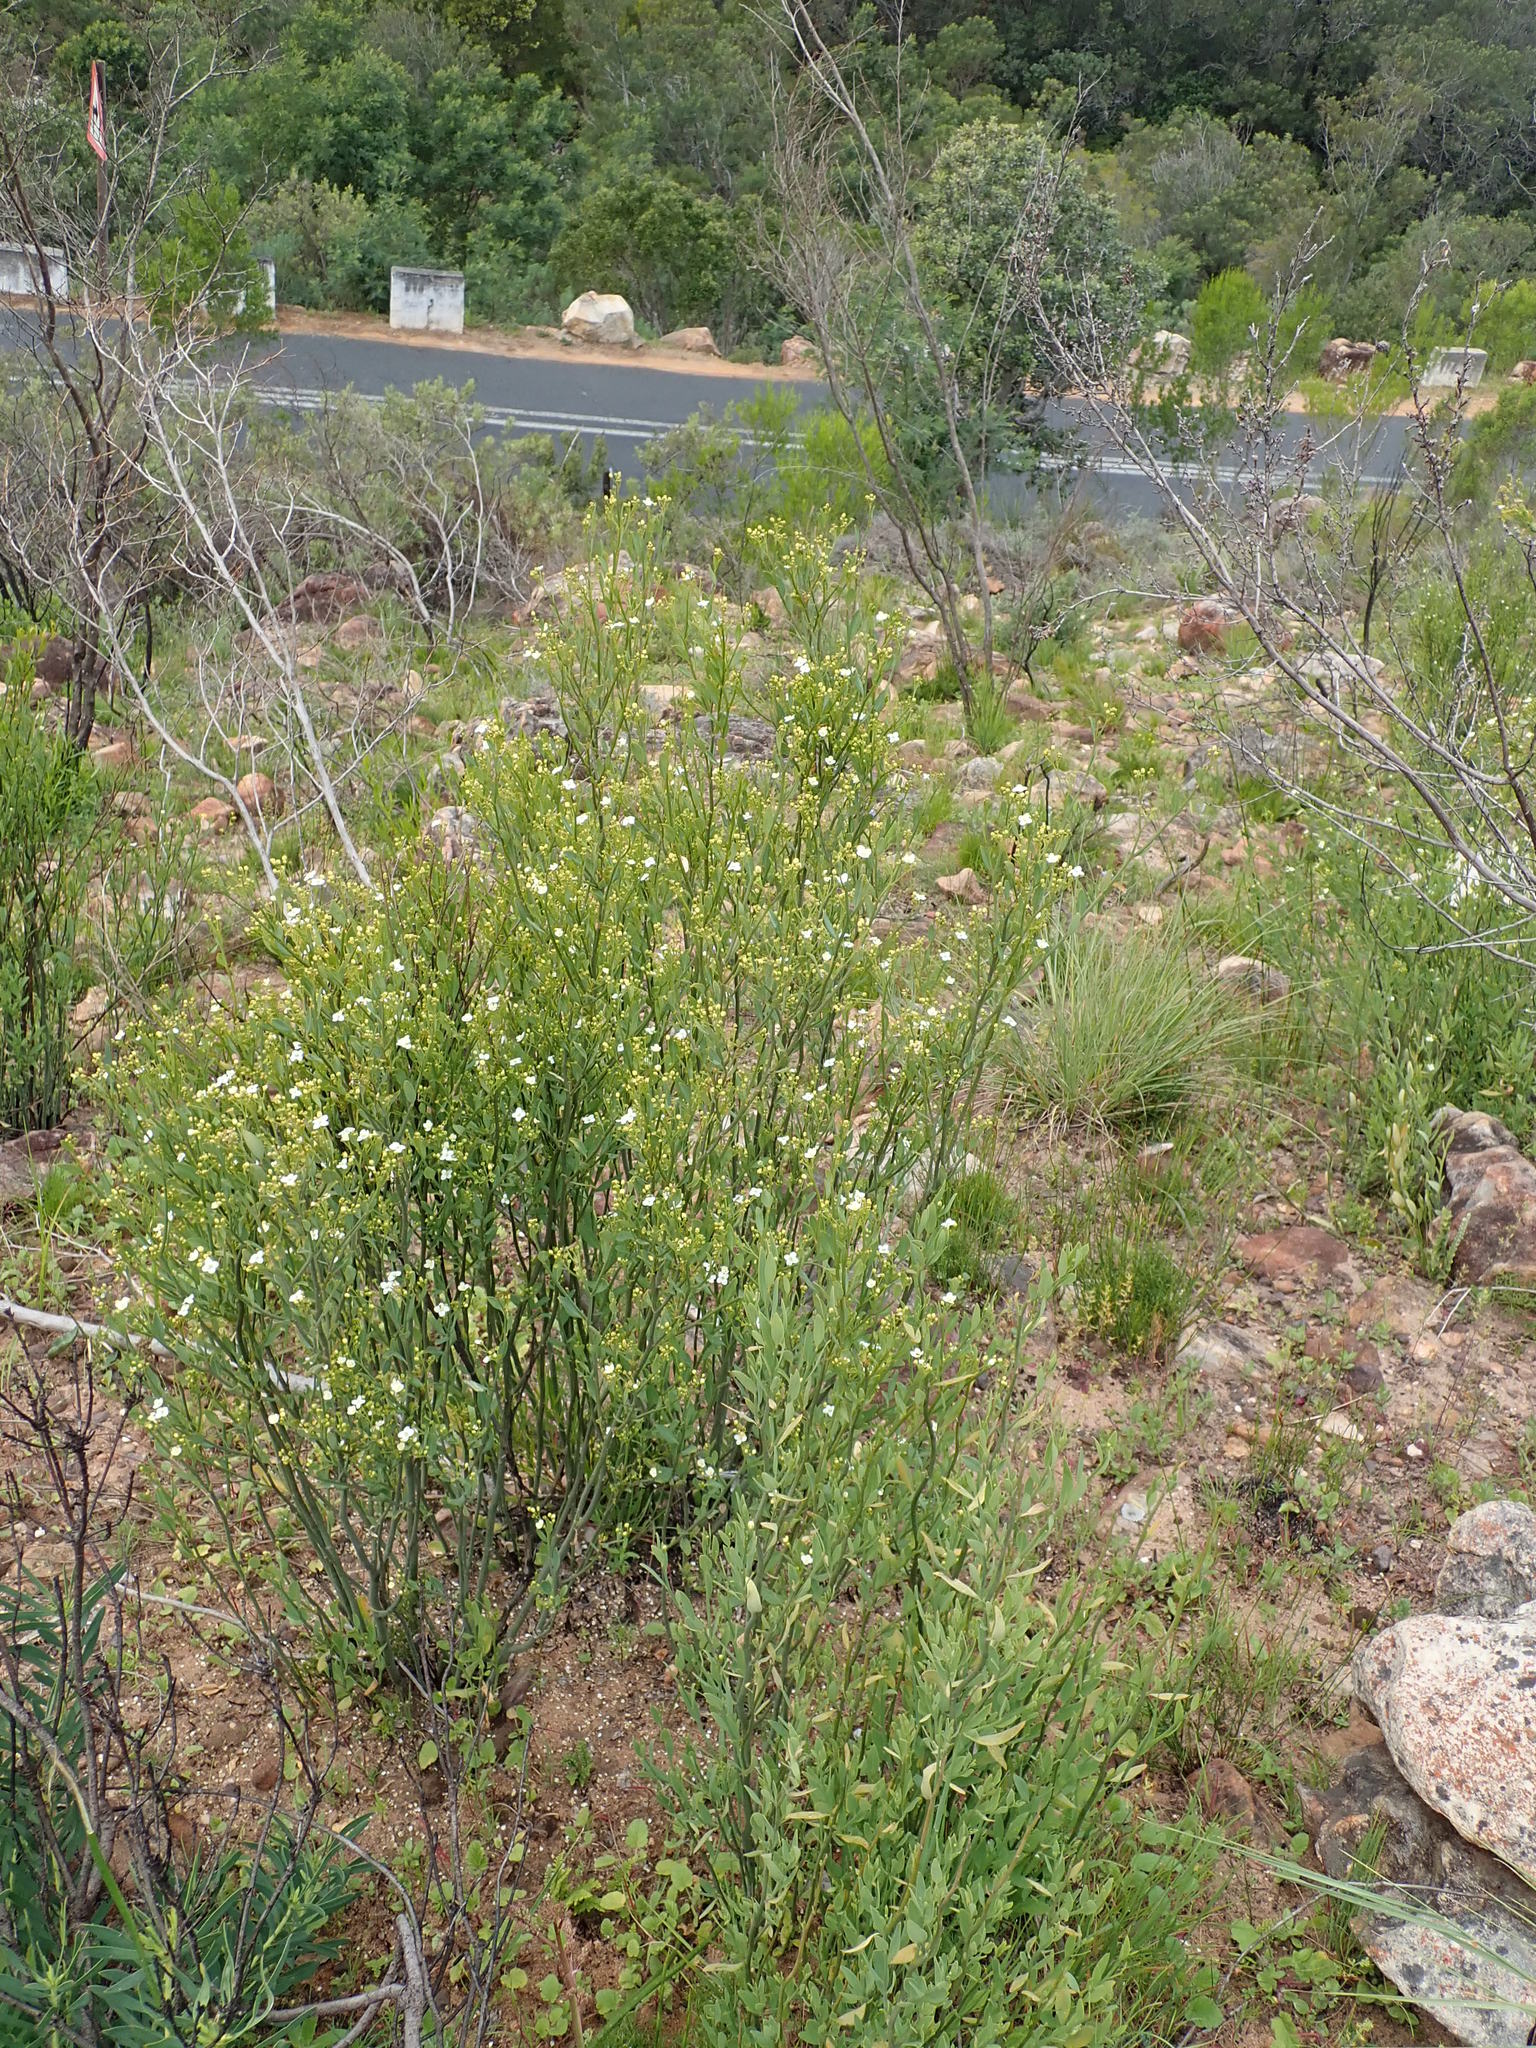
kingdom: Plantae
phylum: Tracheophyta
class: Magnoliopsida
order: Solanales
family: Montiniaceae
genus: Montinia
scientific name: Montinia caryophyllacea
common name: Wild clove-bush
